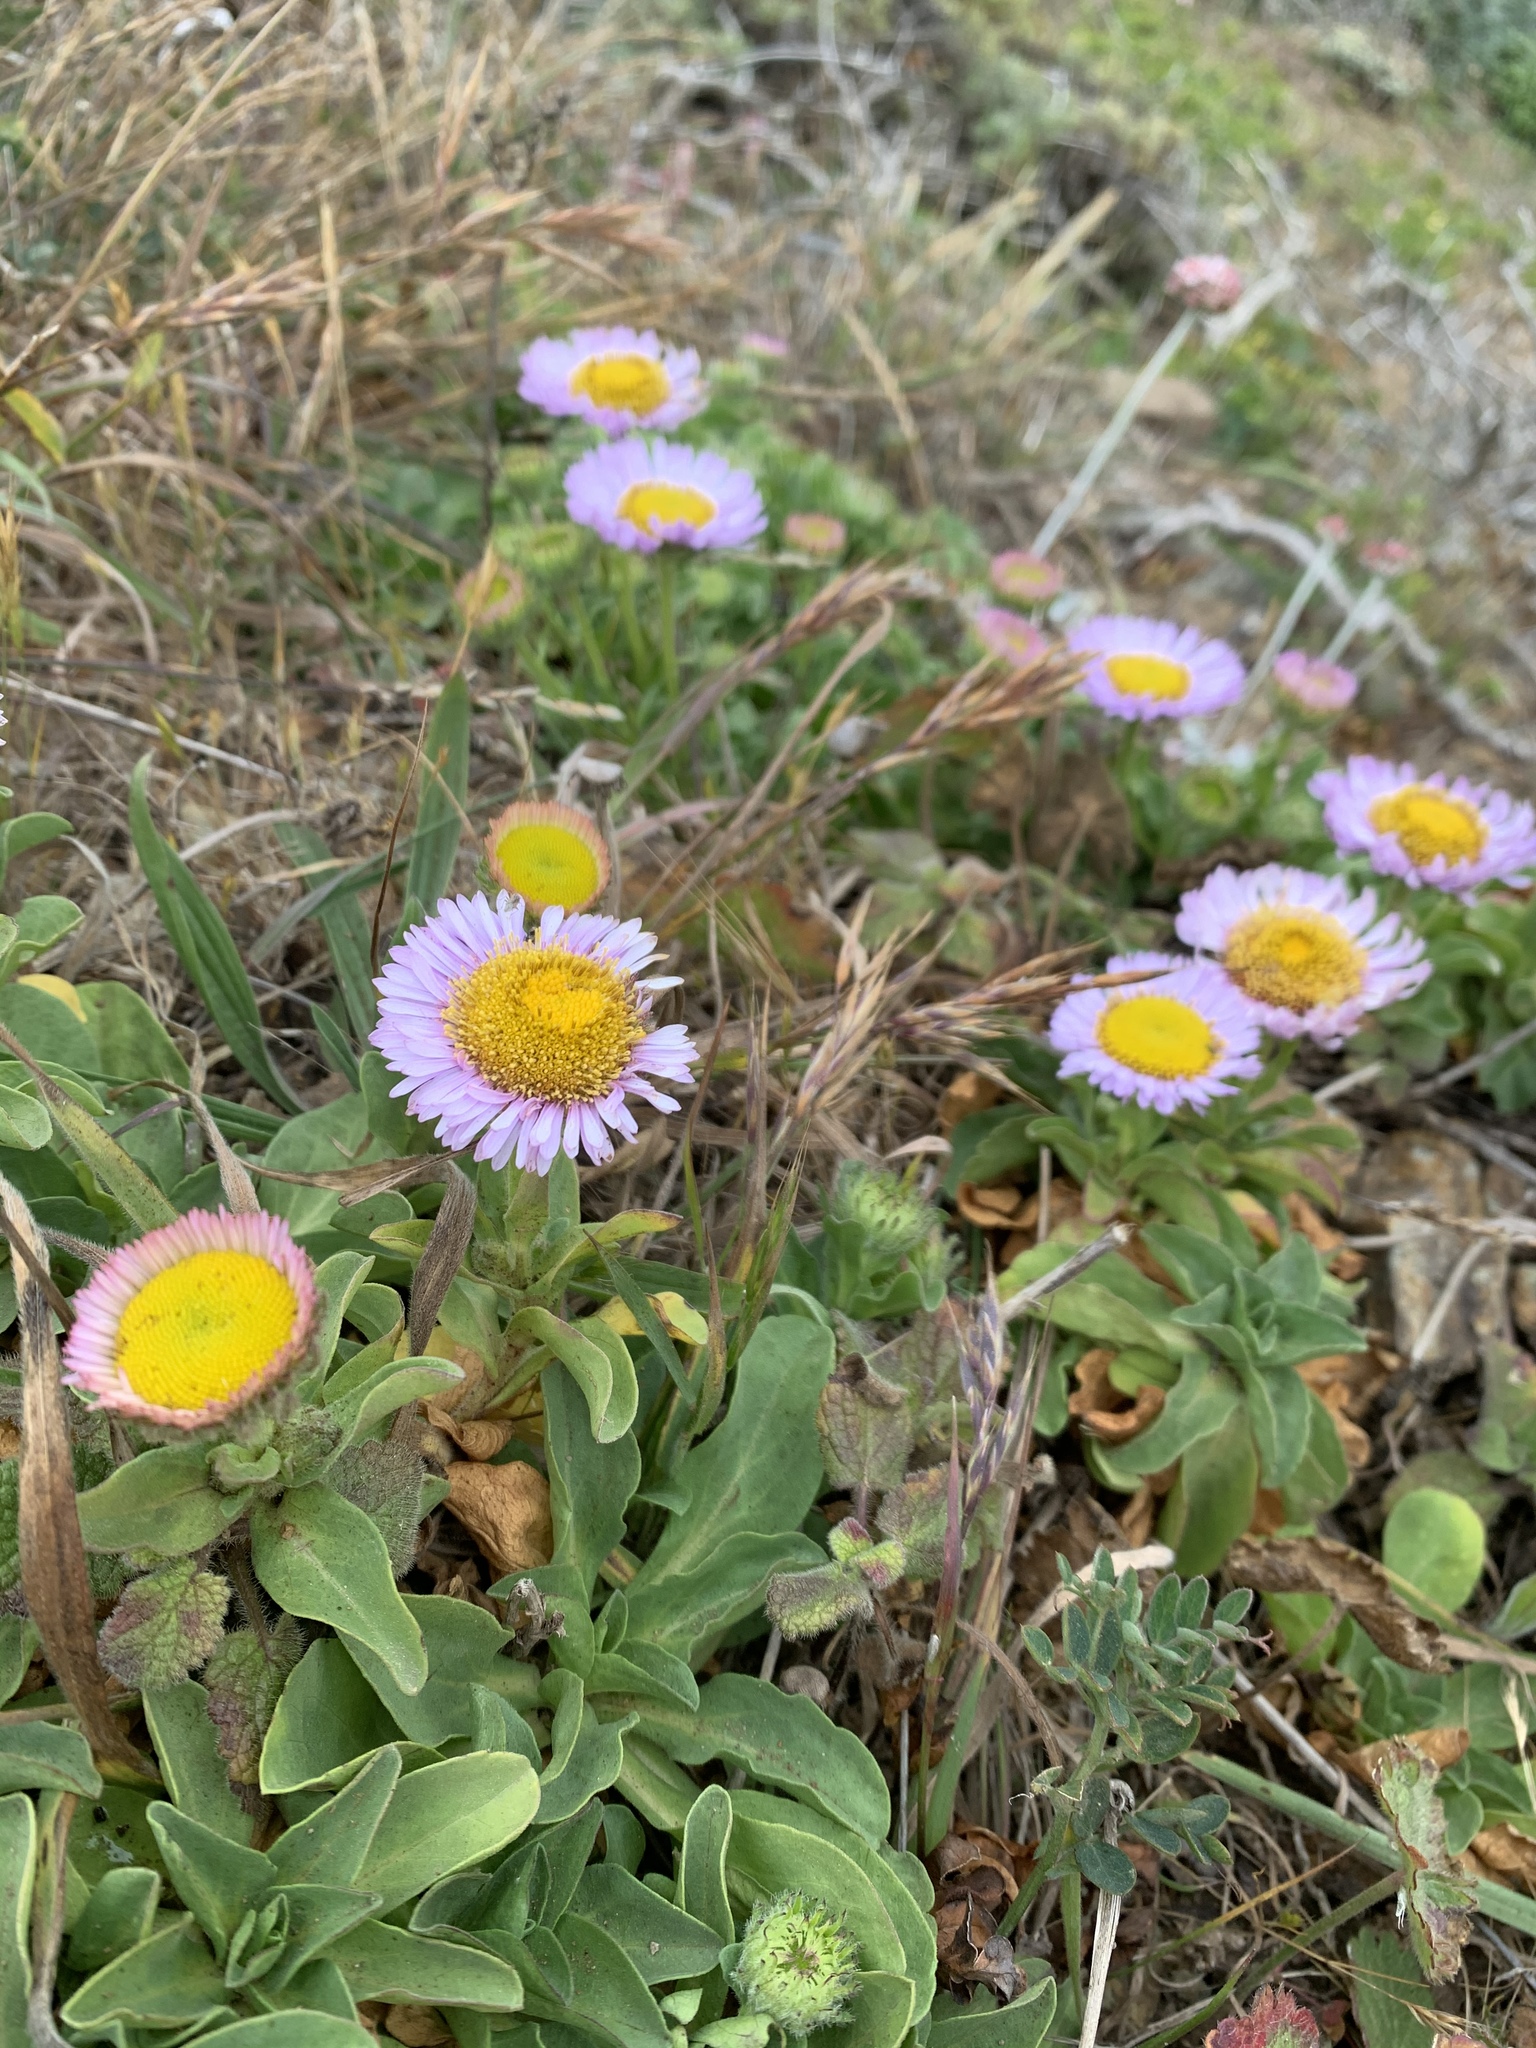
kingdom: Plantae
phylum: Tracheophyta
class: Magnoliopsida
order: Asterales
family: Asteraceae
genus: Erigeron
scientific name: Erigeron glaucus
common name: Seaside daisy
